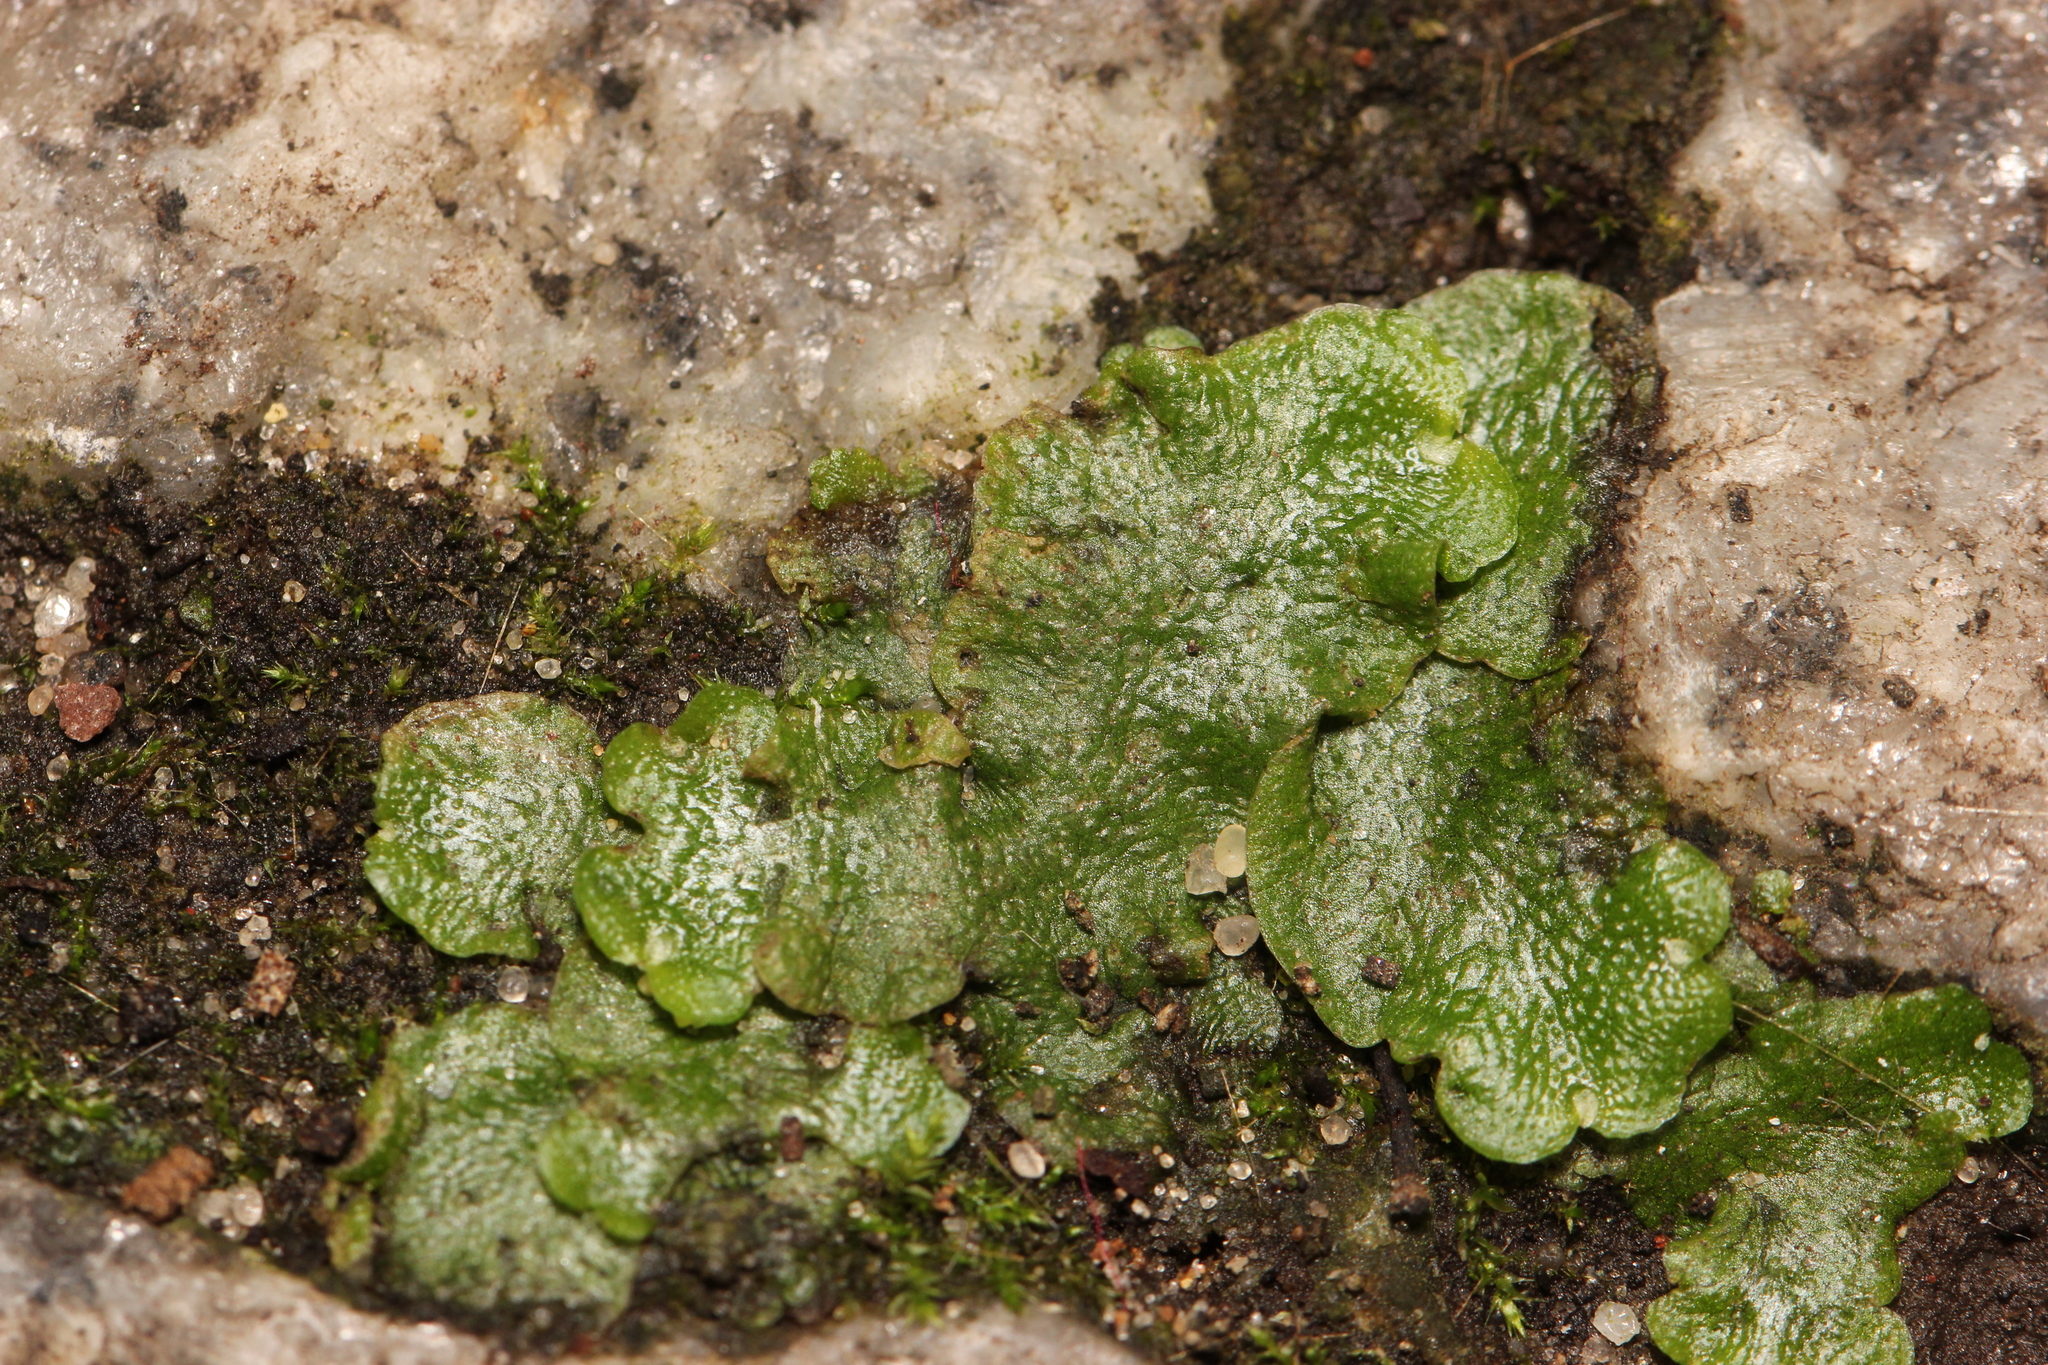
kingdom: Plantae
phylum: Marchantiophyta
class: Marchantiopsida
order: Lunulariales
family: Lunulariaceae
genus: Lunularia
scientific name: Lunularia cruciata
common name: Crescent-cup liverwort
